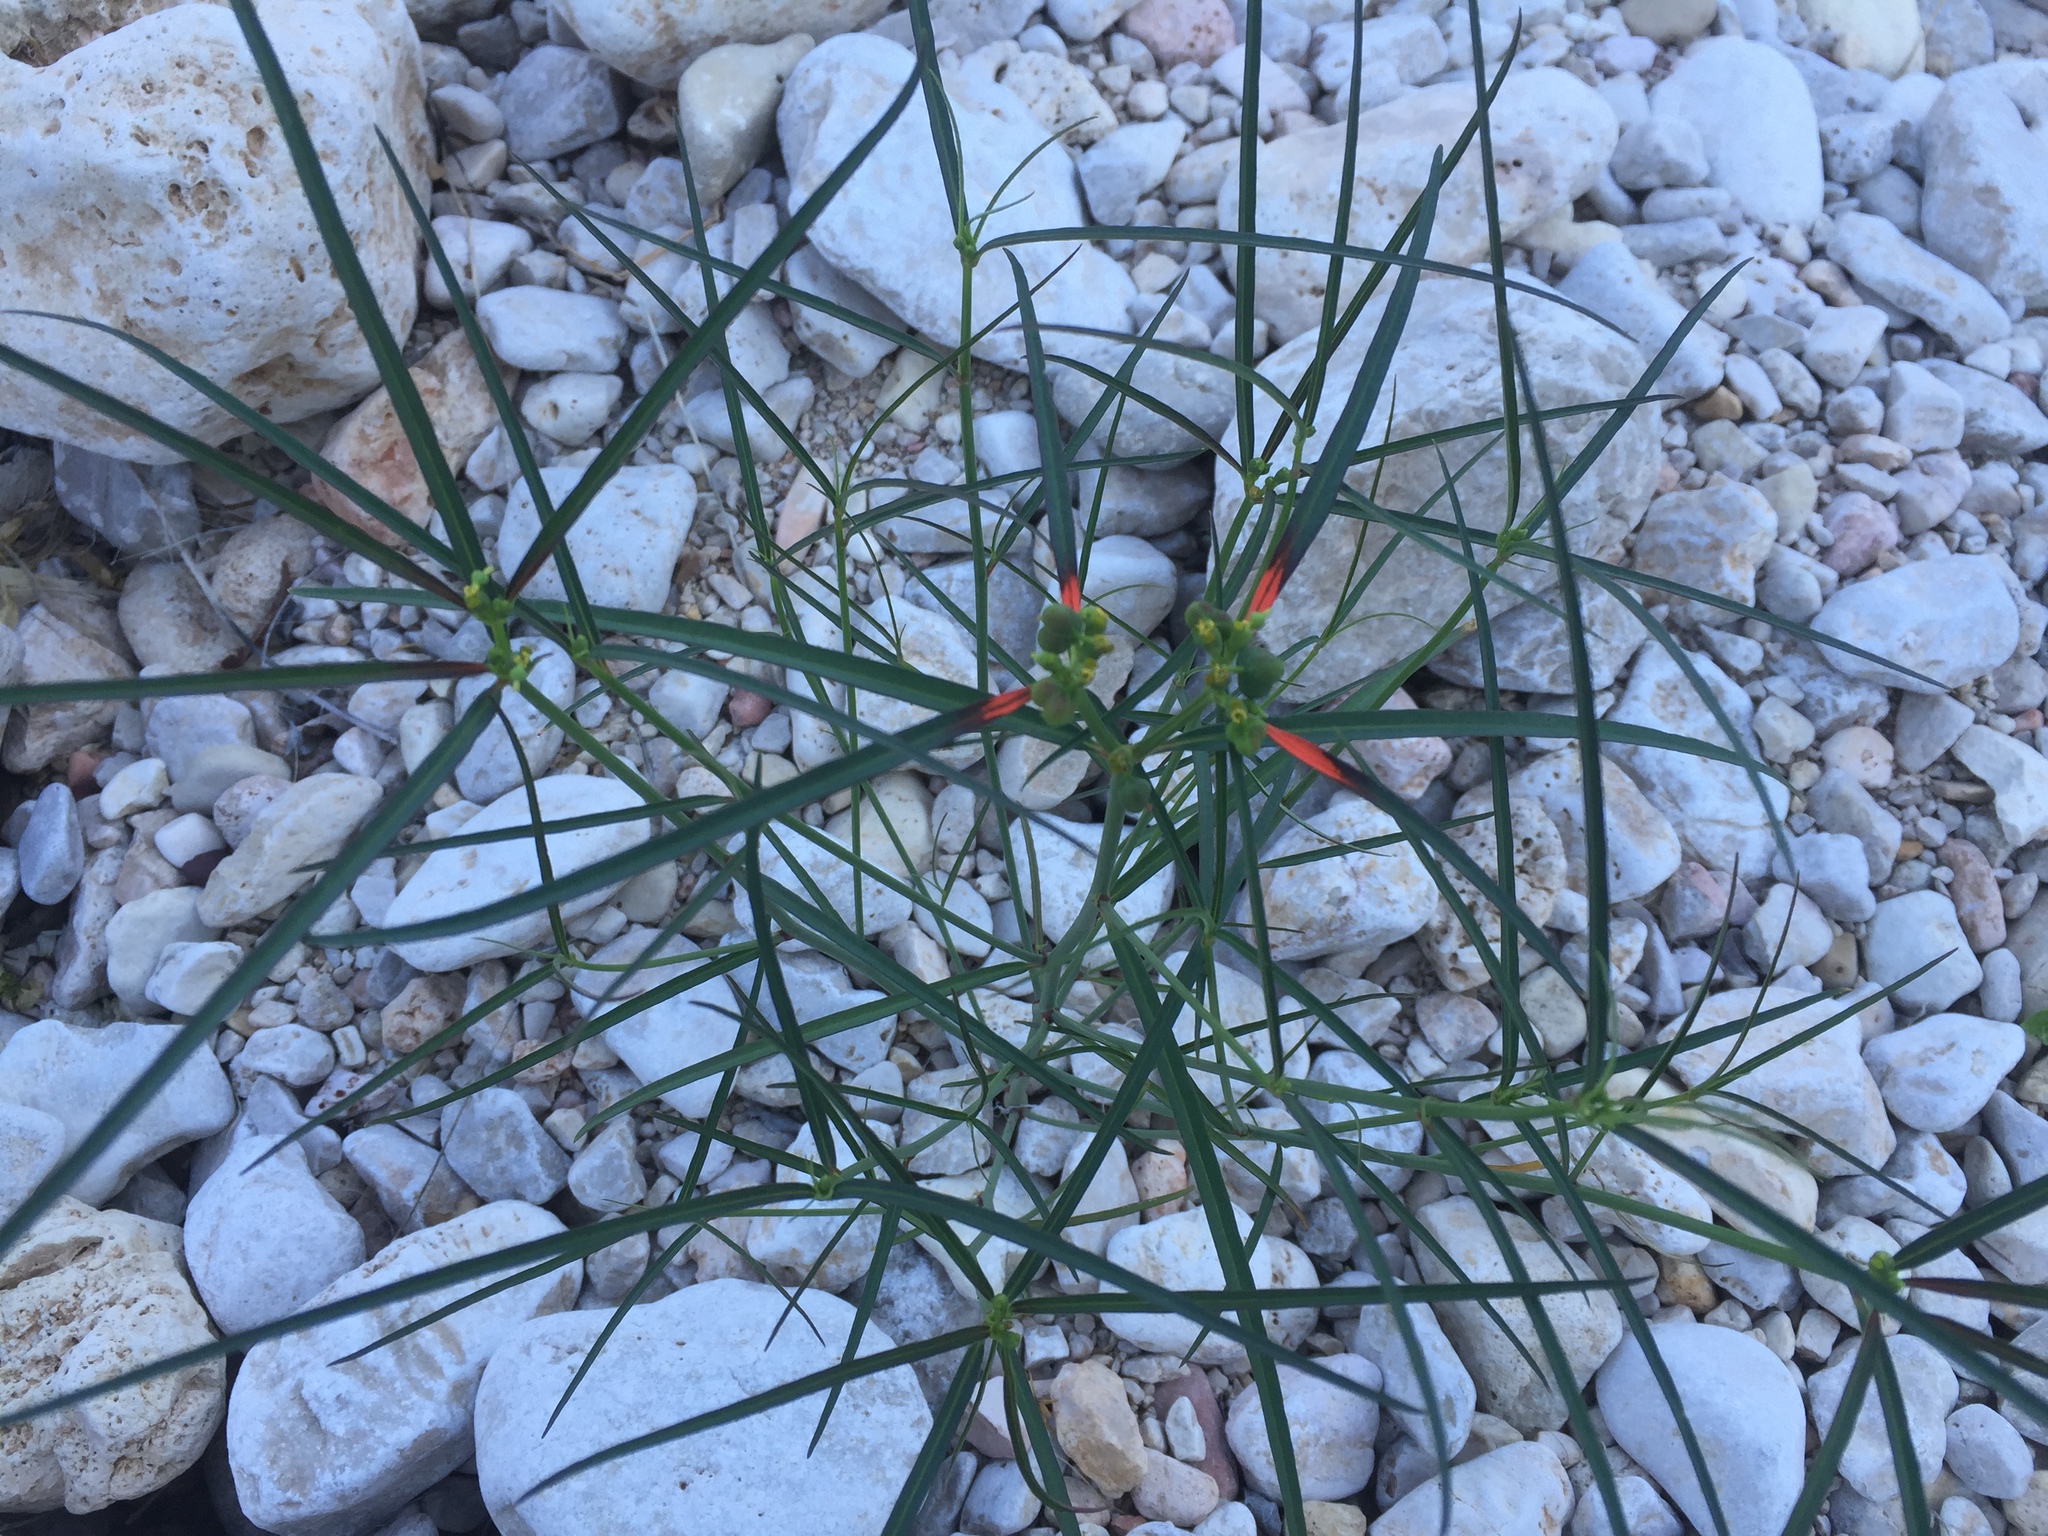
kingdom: Plantae
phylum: Tracheophyta
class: Magnoliopsida
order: Malpighiales
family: Euphorbiaceae
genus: Euphorbia
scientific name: Euphorbia heterophylla
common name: Mexican fireplant
